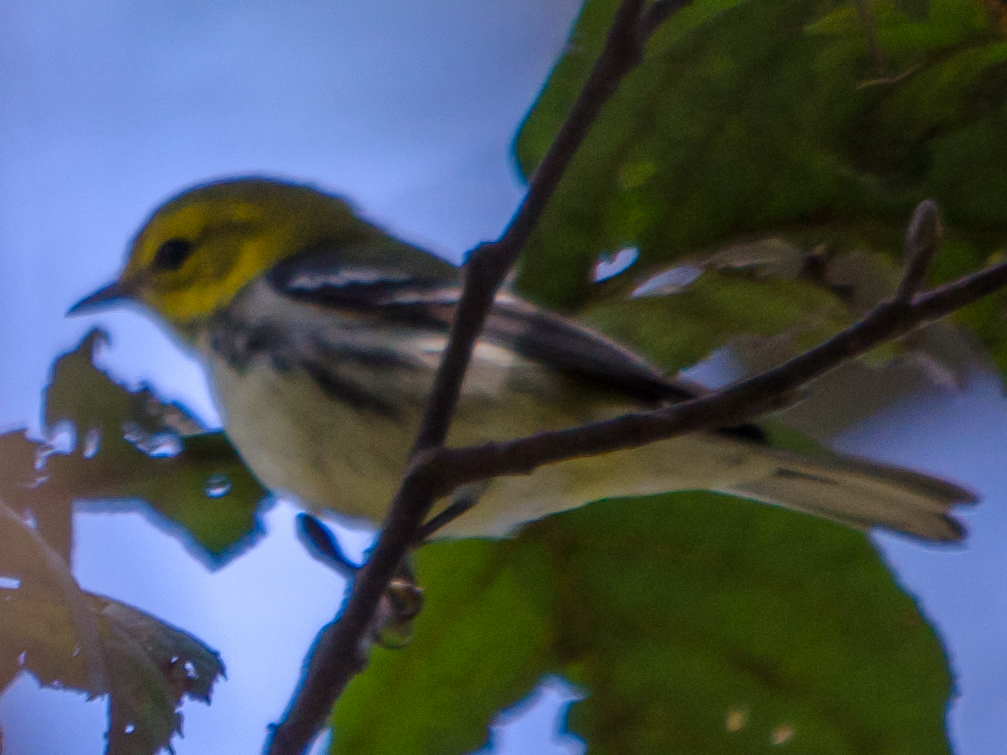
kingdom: Animalia
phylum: Chordata
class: Aves
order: Passeriformes
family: Parulidae
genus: Setophaga
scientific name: Setophaga virens
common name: Black-throated green warbler
